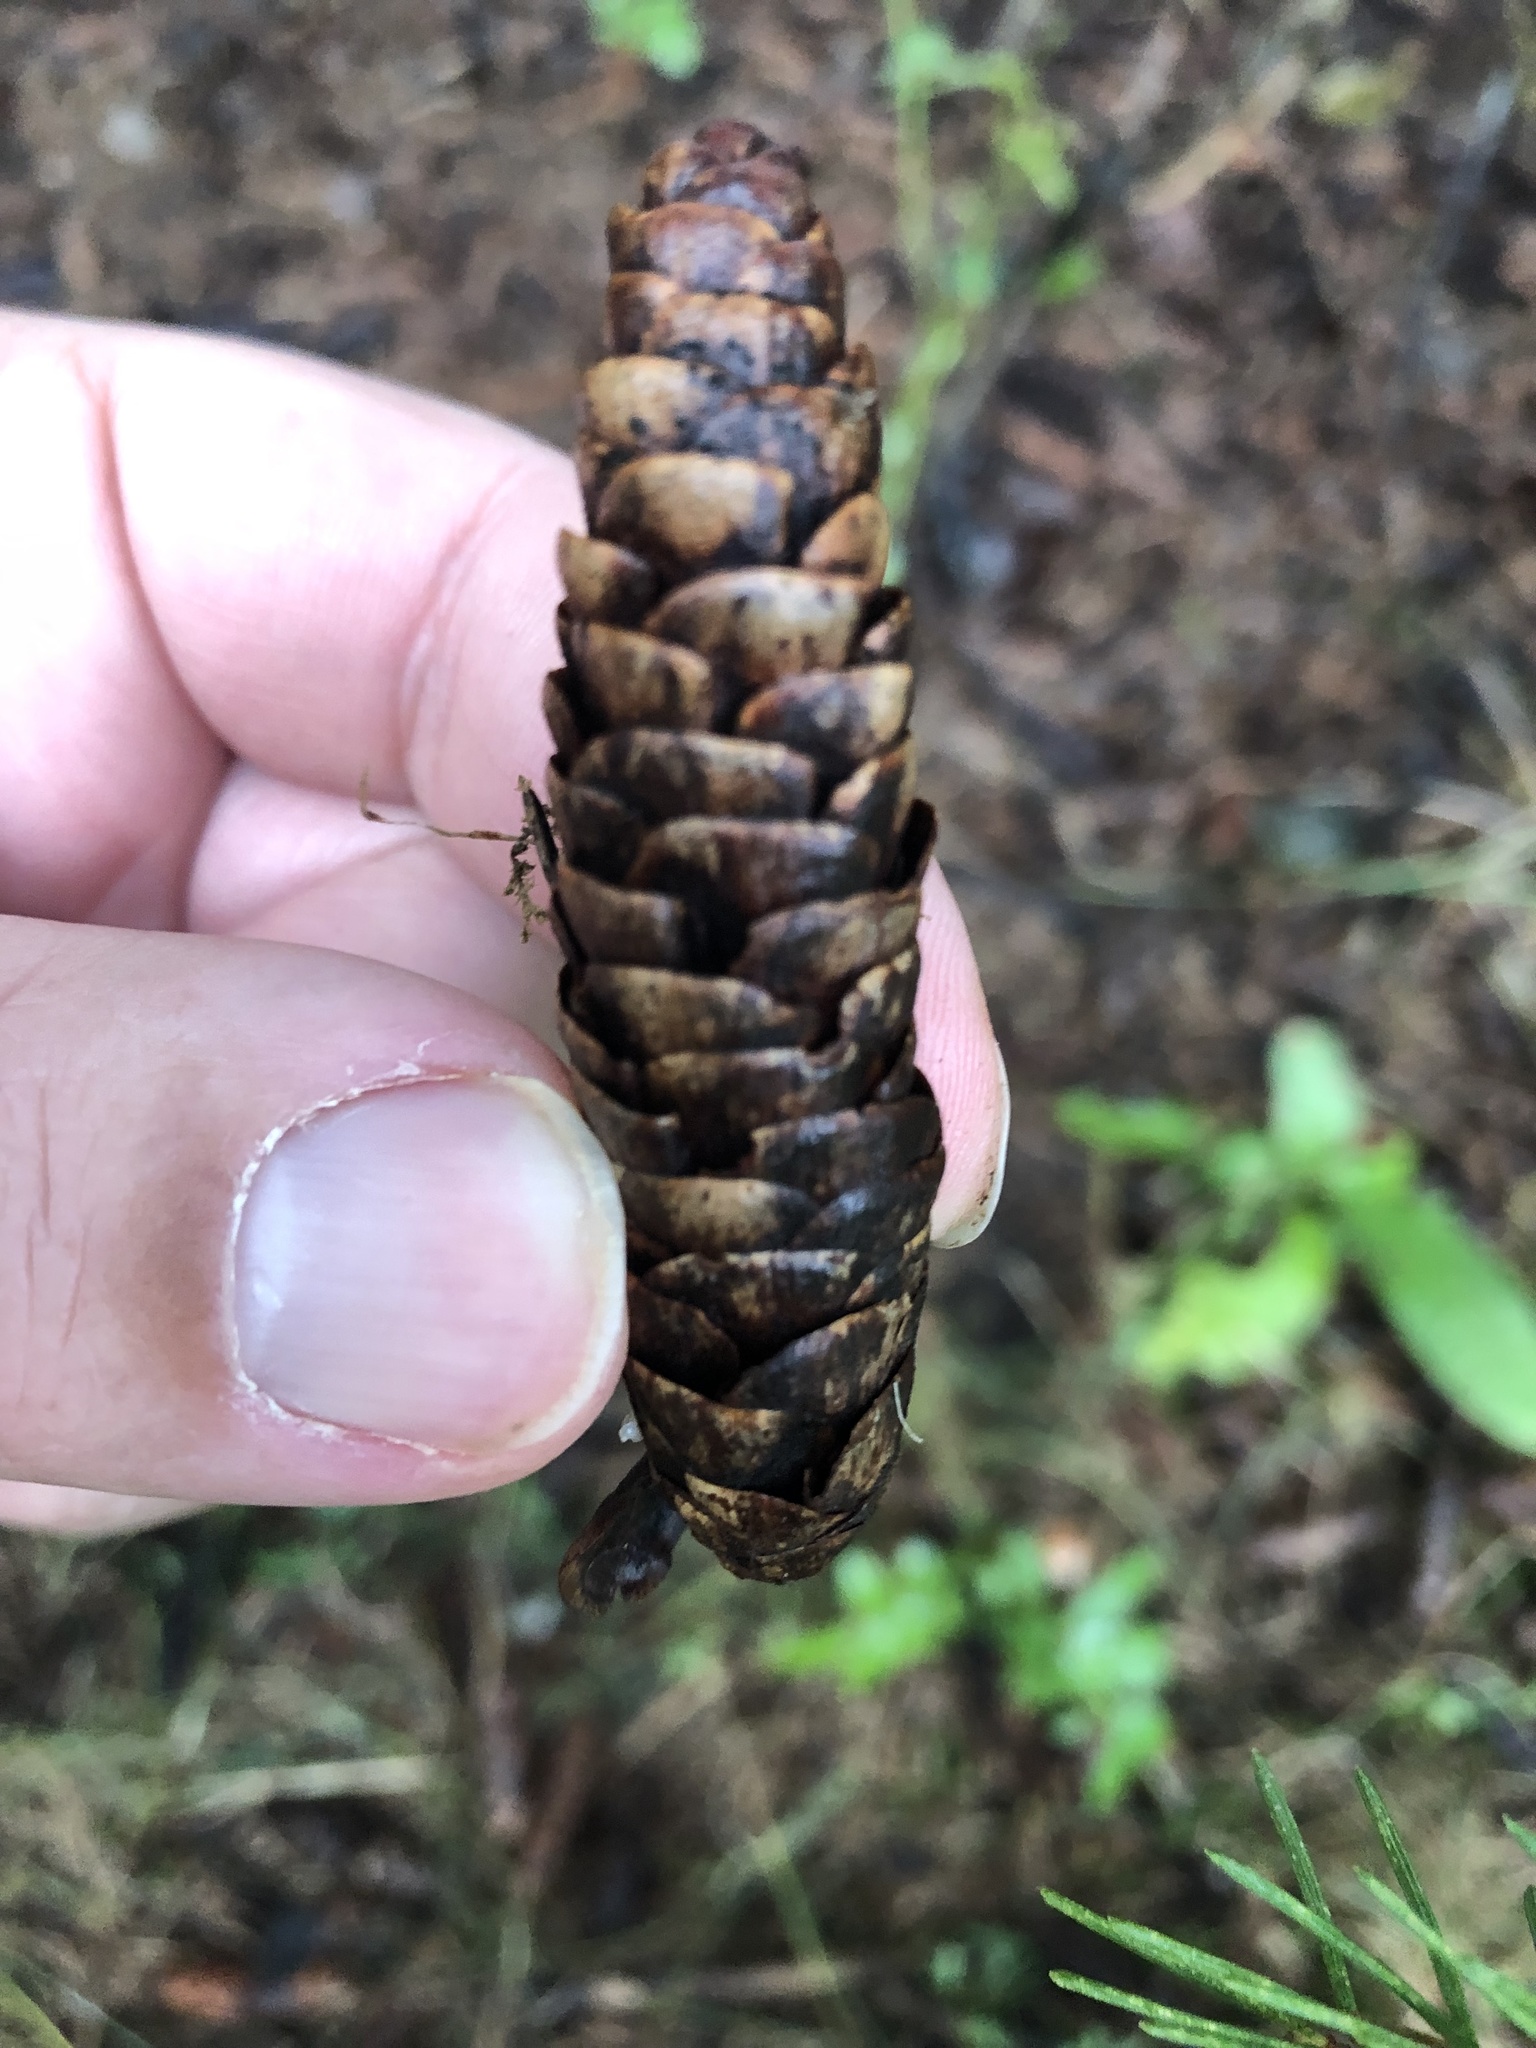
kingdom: Plantae
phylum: Tracheophyta
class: Pinopsida
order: Pinales
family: Pinaceae
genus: Picea
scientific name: Picea glauca
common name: White spruce
